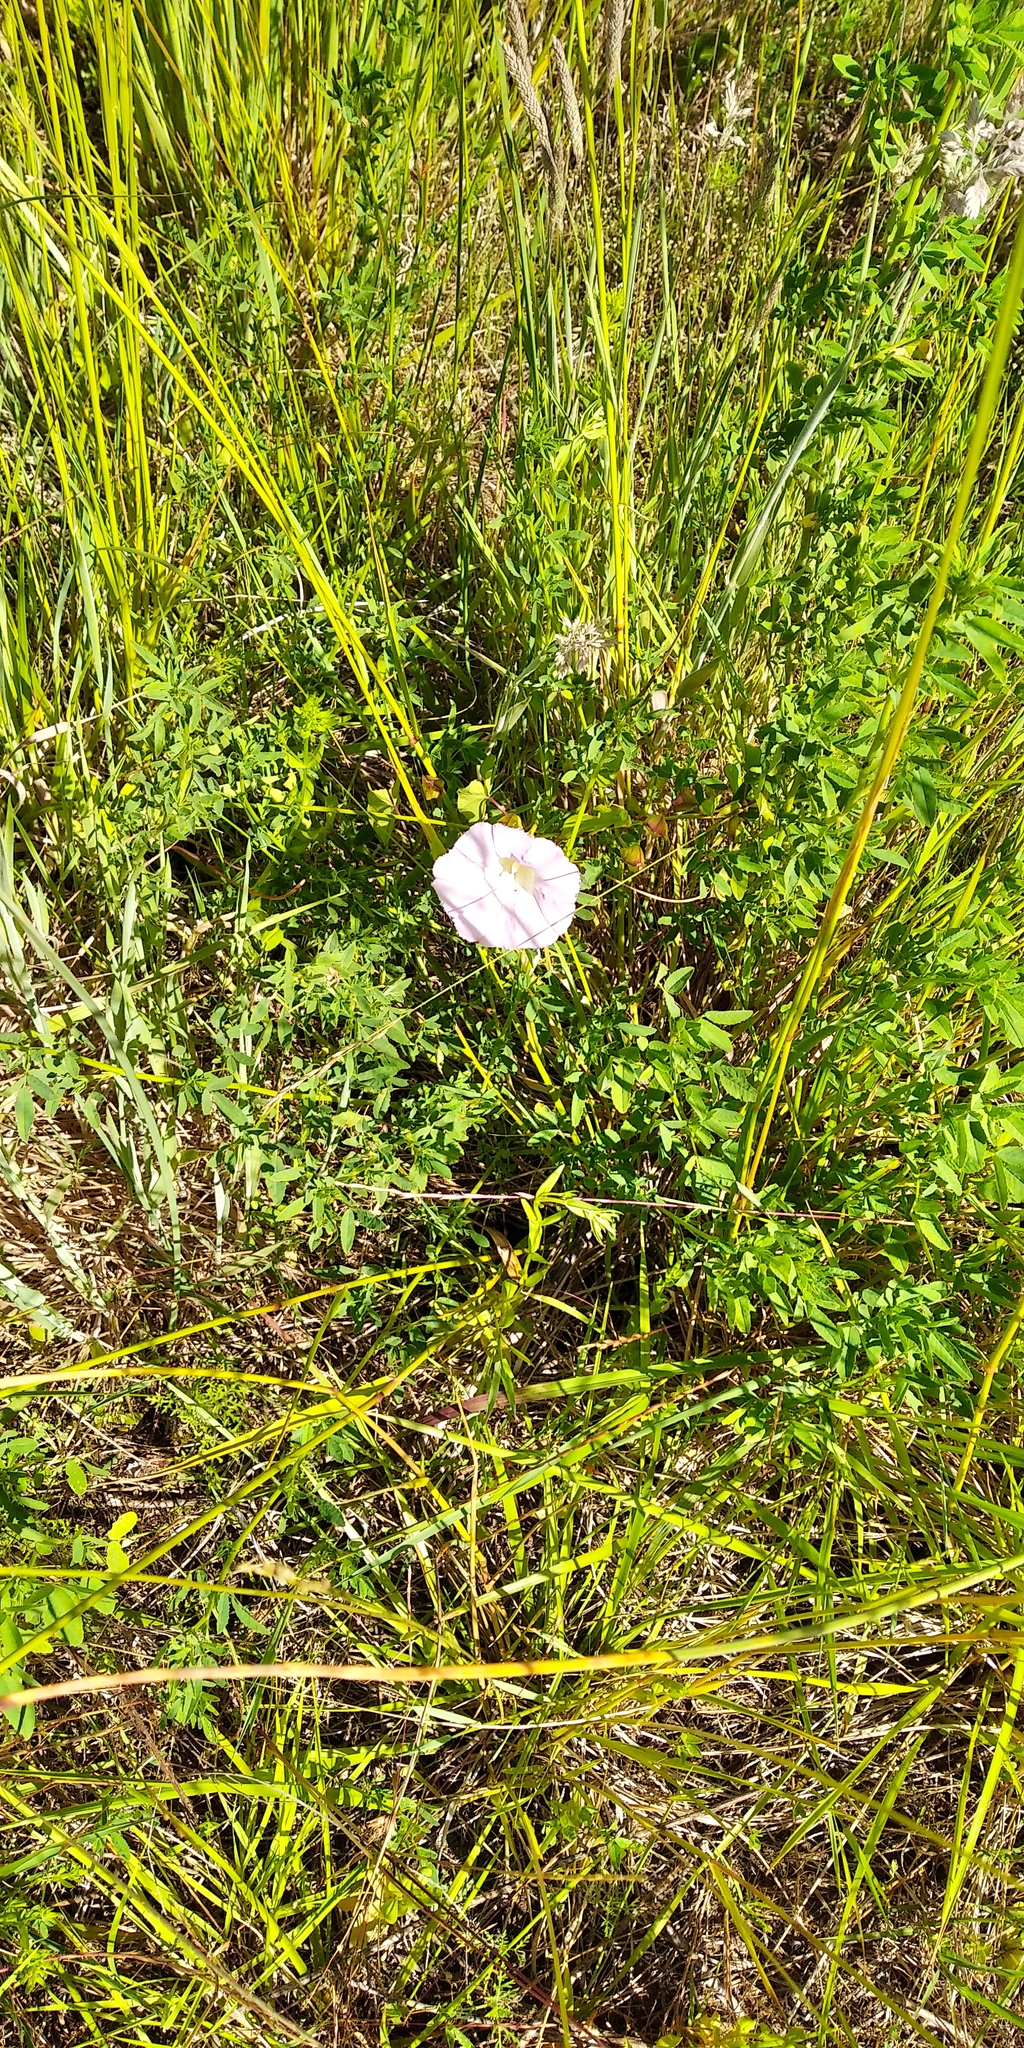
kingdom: Plantae
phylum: Tracheophyta
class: Magnoliopsida
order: Solanales
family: Convolvulaceae
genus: Calystegia
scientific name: Calystegia sepium
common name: Hedge bindweed
